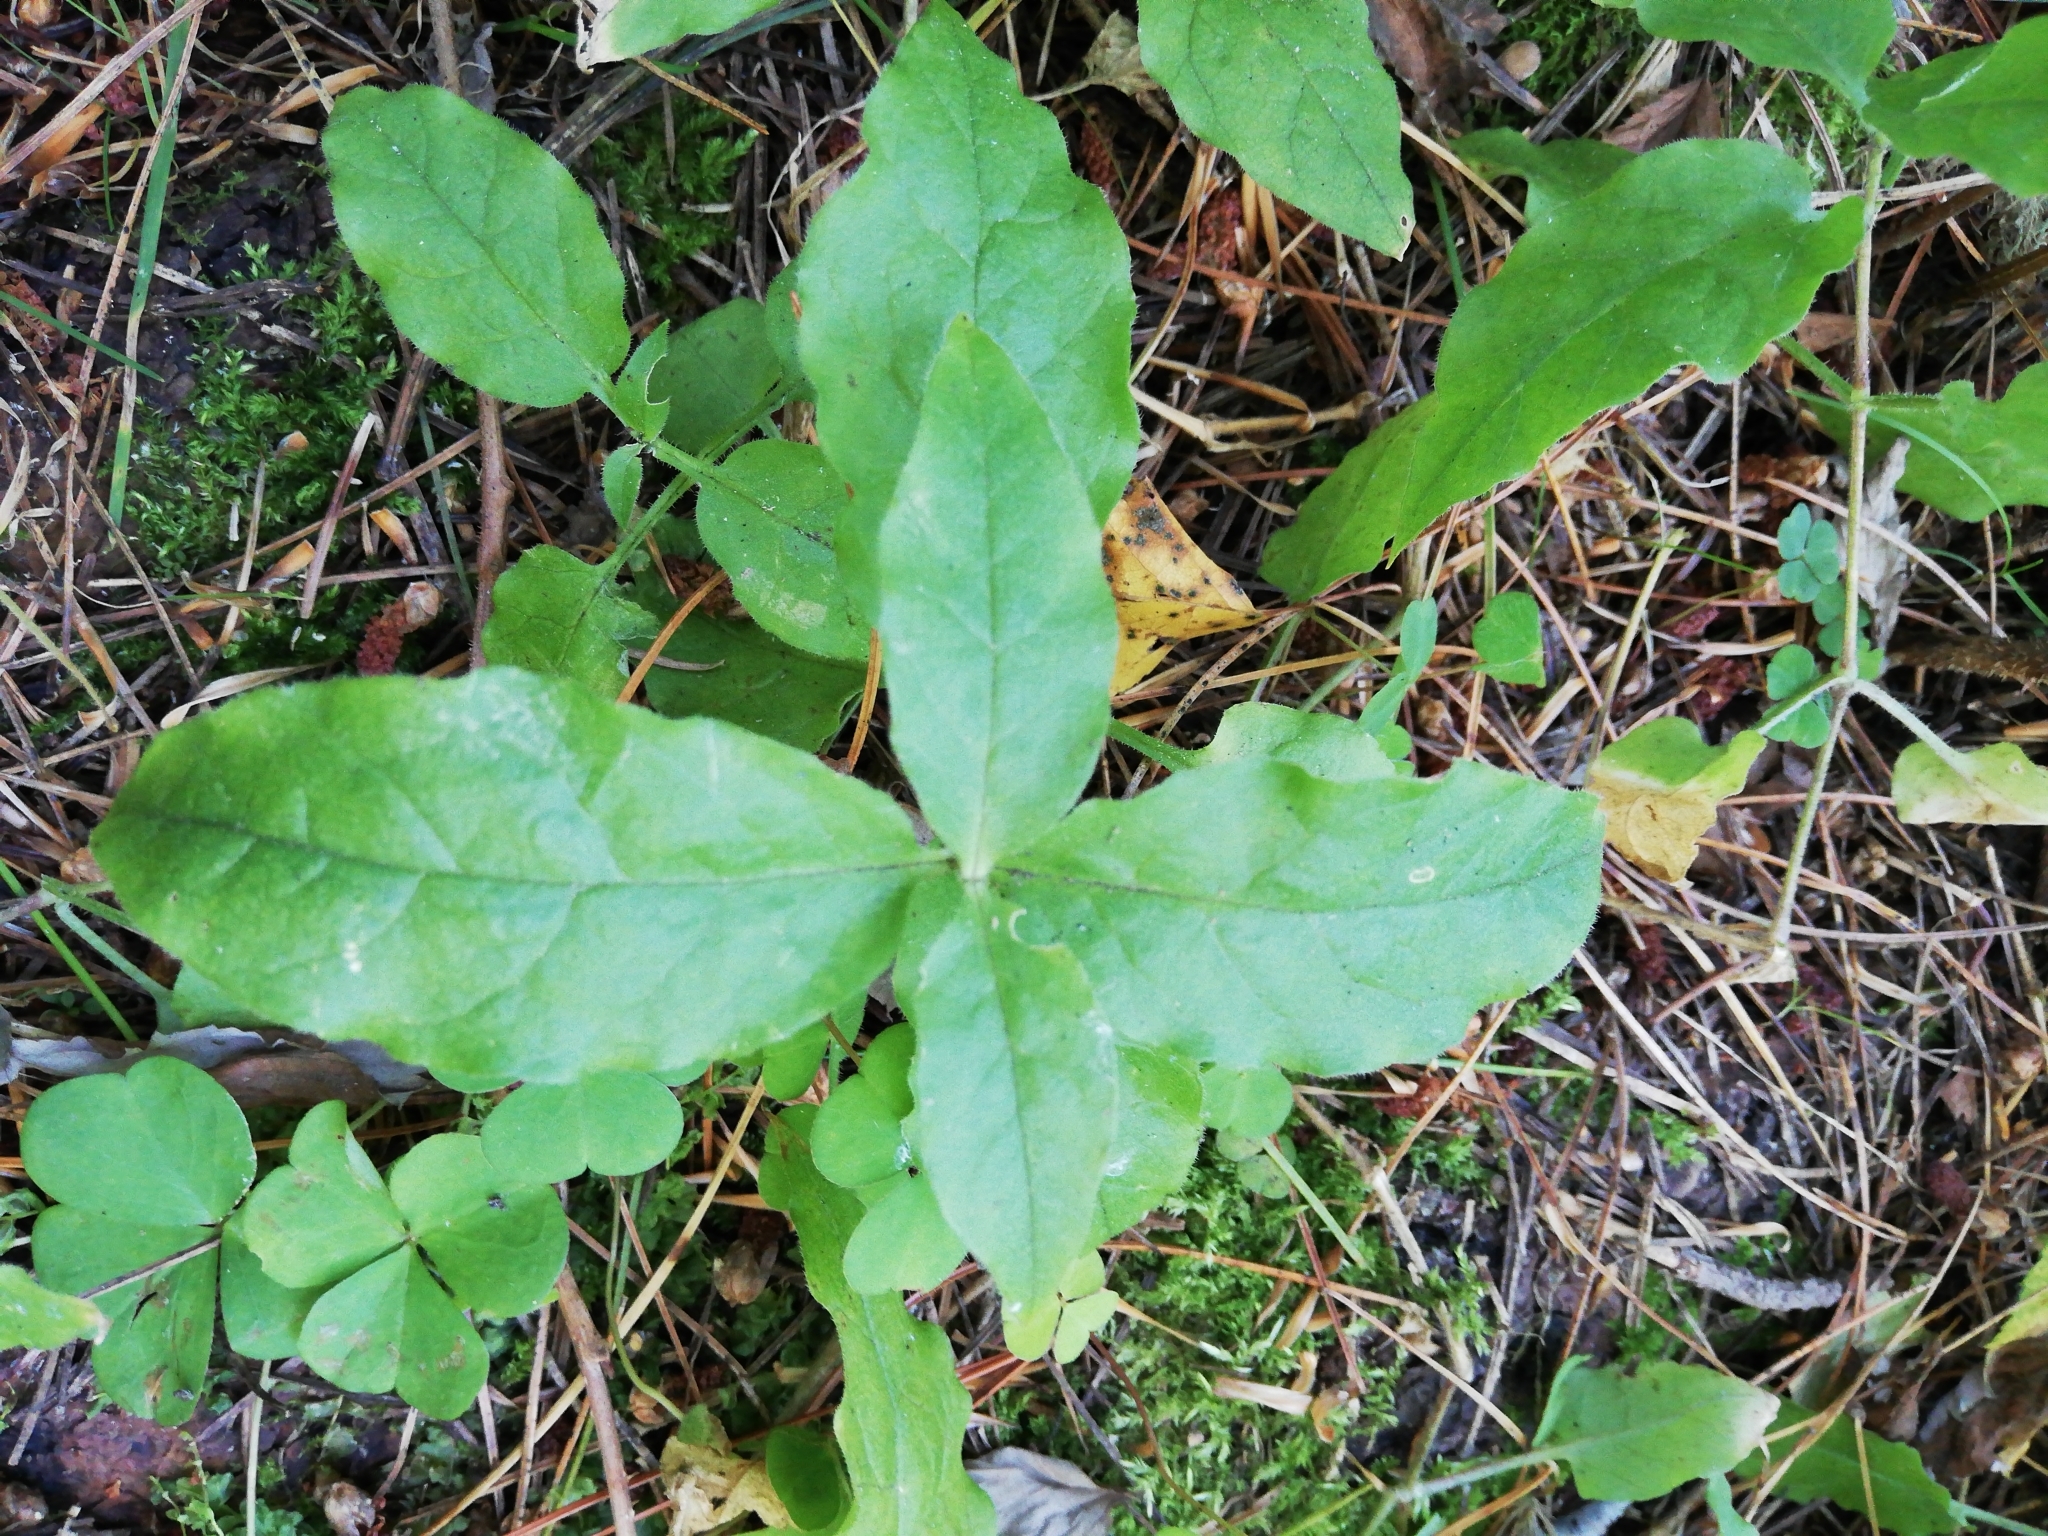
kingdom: Plantae
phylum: Tracheophyta
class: Magnoliopsida
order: Caryophyllales
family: Caryophyllaceae
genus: Stellaria
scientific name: Stellaria bungeana
